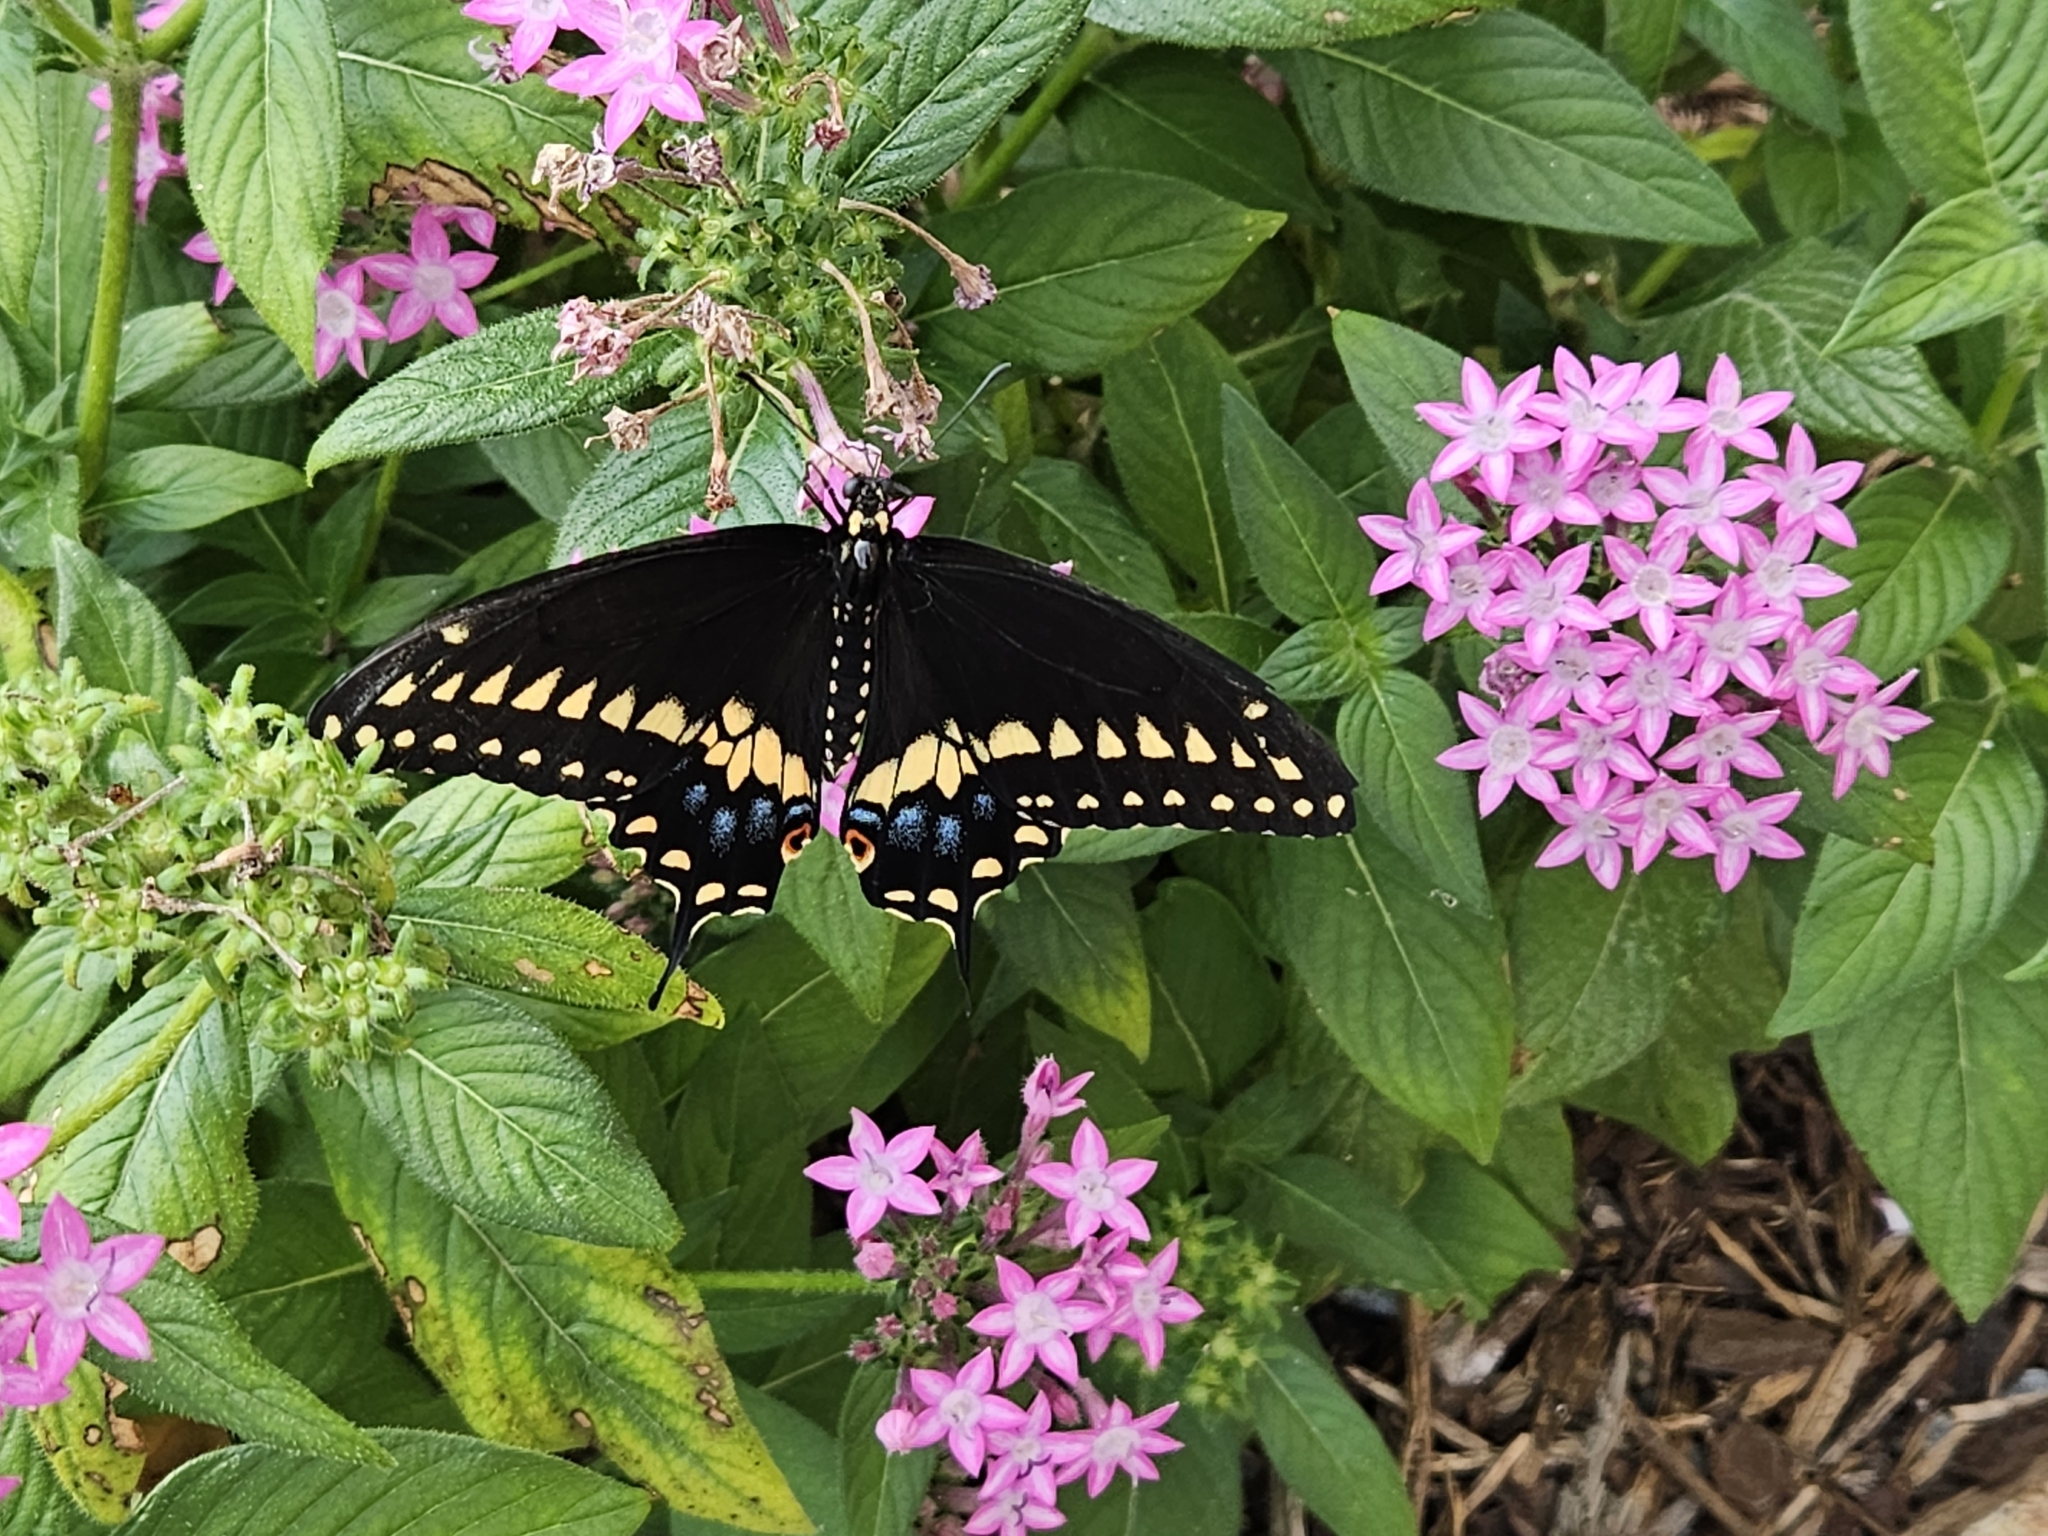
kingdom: Animalia
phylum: Arthropoda
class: Insecta
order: Lepidoptera
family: Papilionidae
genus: Papilio
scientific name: Papilio polyxenes
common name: Black swallowtail
